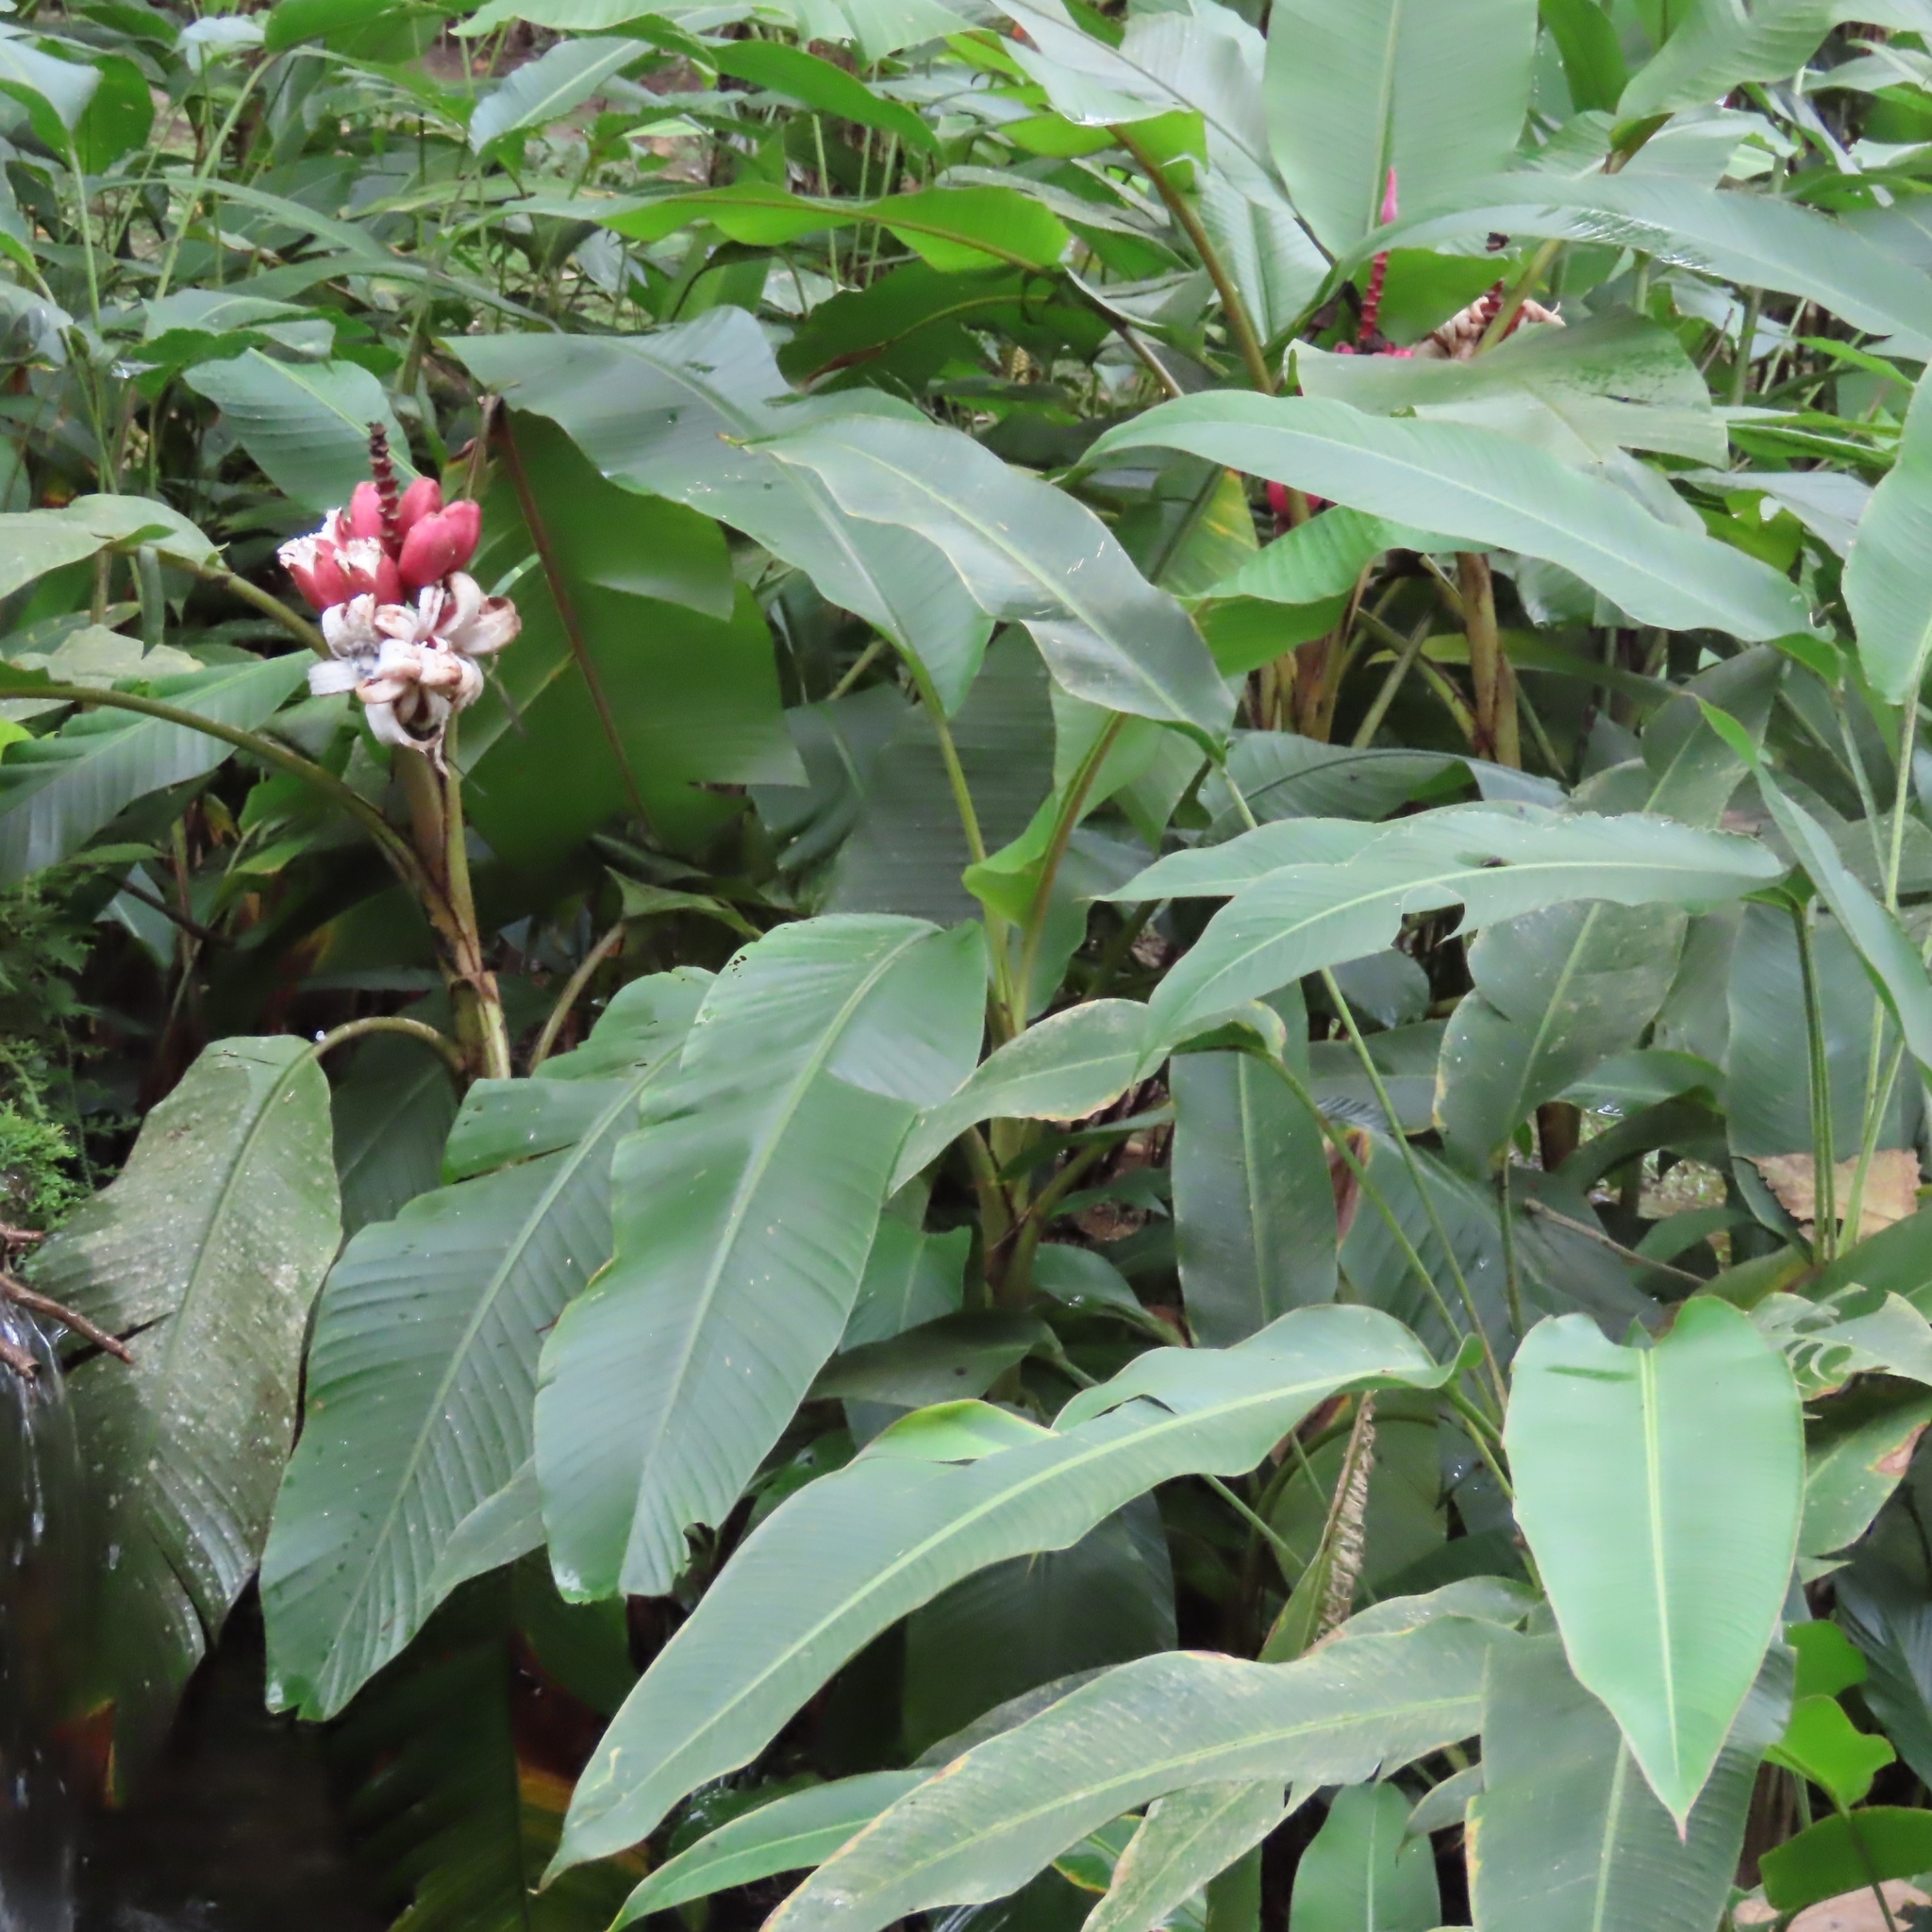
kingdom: Plantae
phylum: Tracheophyta
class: Liliopsida
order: Zingiberales
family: Musaceae
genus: Musa
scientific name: Musa velutina
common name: Pink velvet banana
